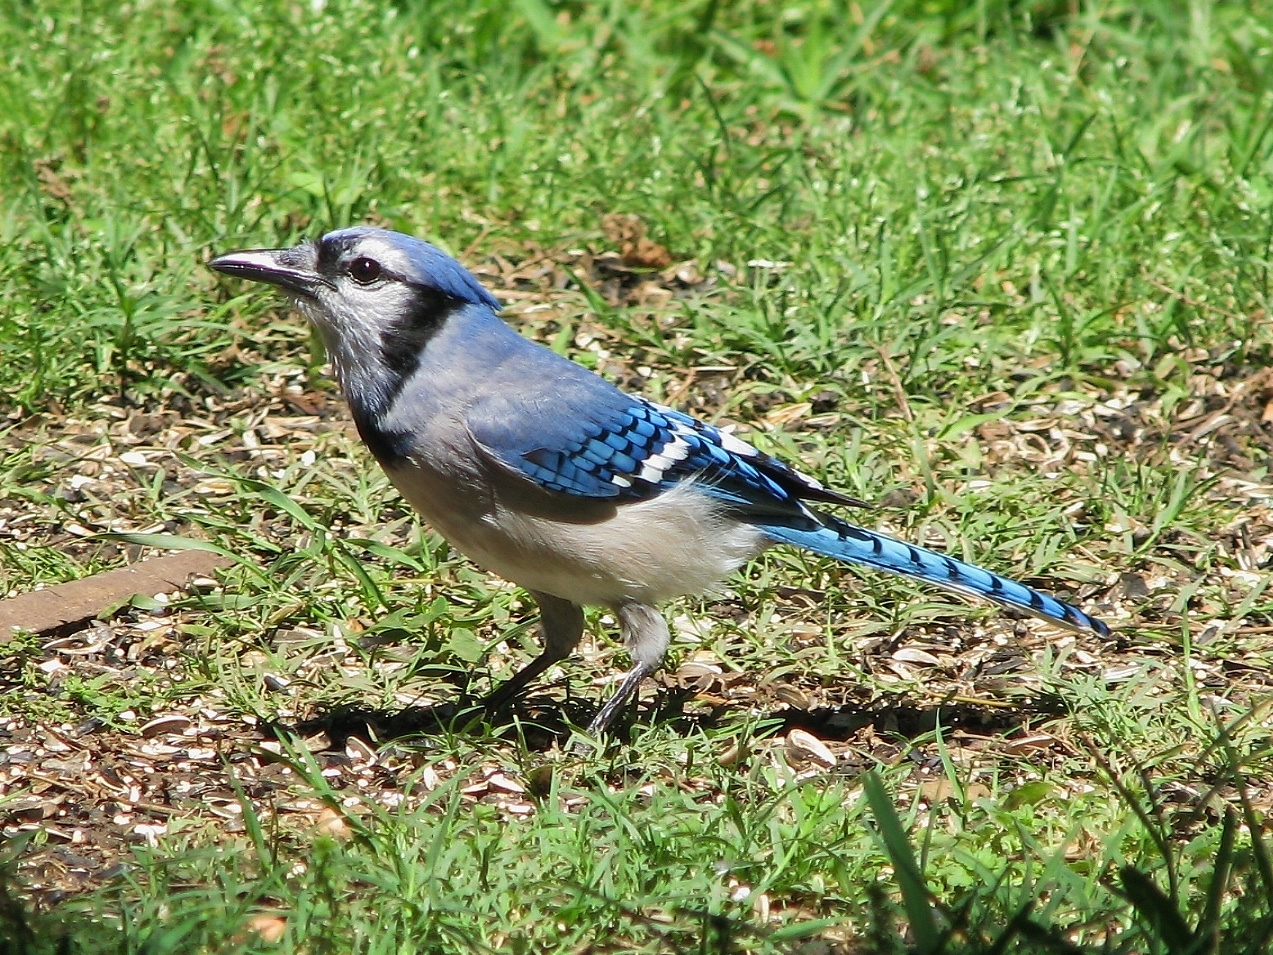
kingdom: Animalia
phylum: Chordata
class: Aves
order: Passeriformes
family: Corvidae
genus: Cyanocitta
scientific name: Cyanocitta cristata
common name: Blue jay
